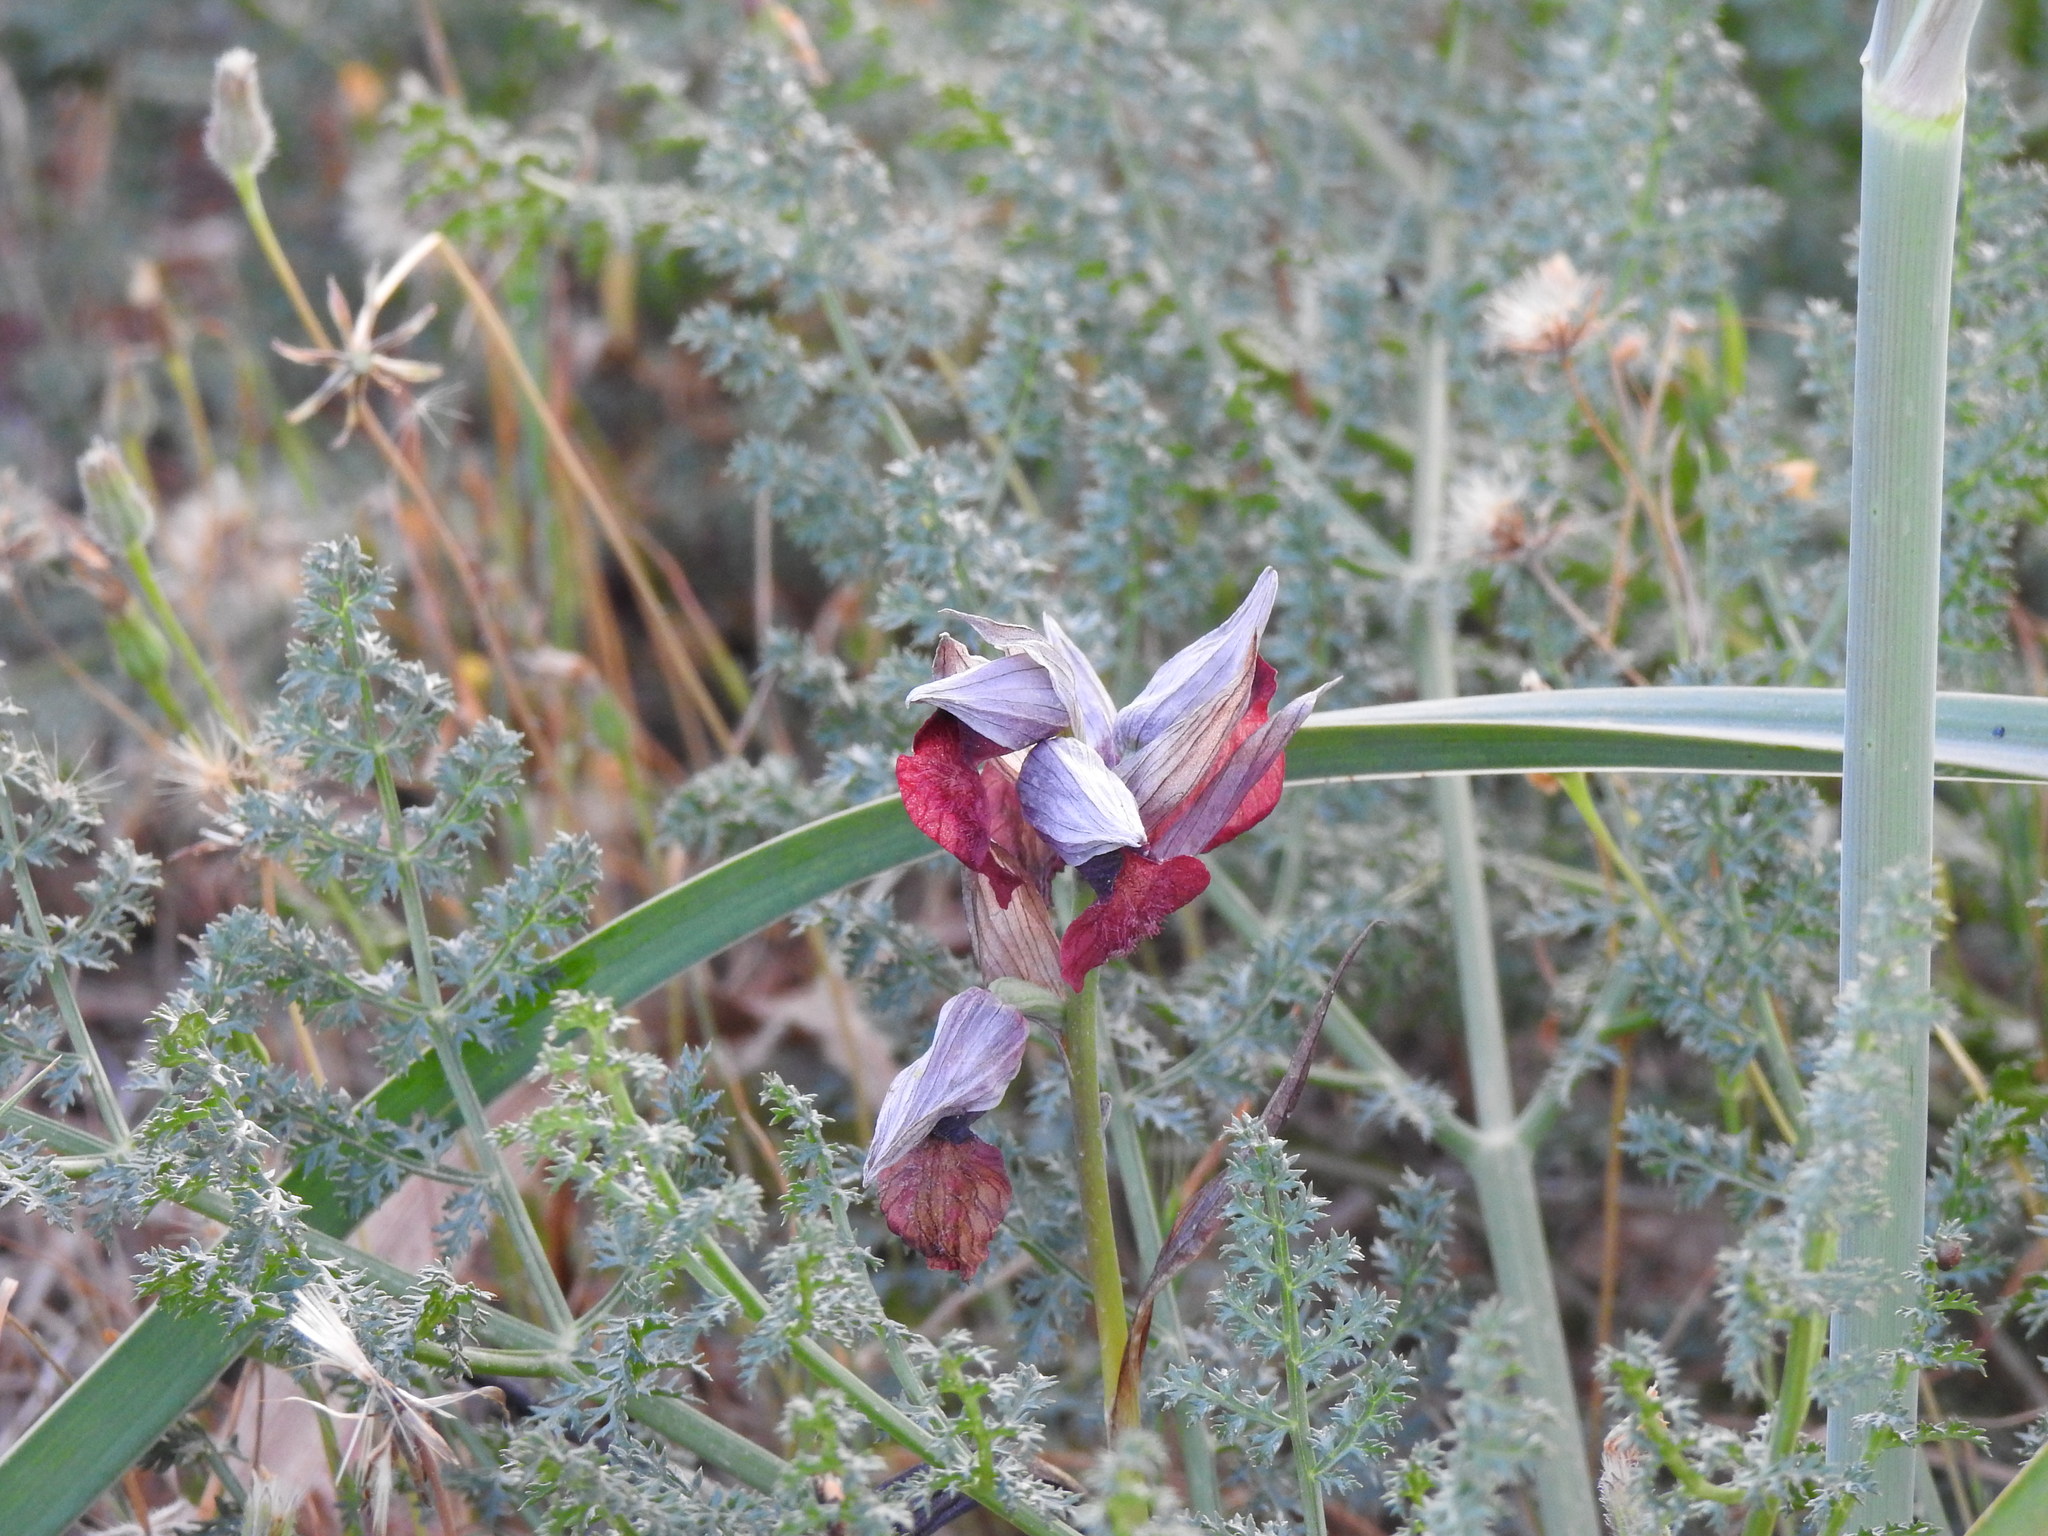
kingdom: Plantae
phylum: Tracheophyta
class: Liliopsida
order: Asparagales
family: Orchidaceae
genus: Serapias
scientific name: Serapias cordigera
